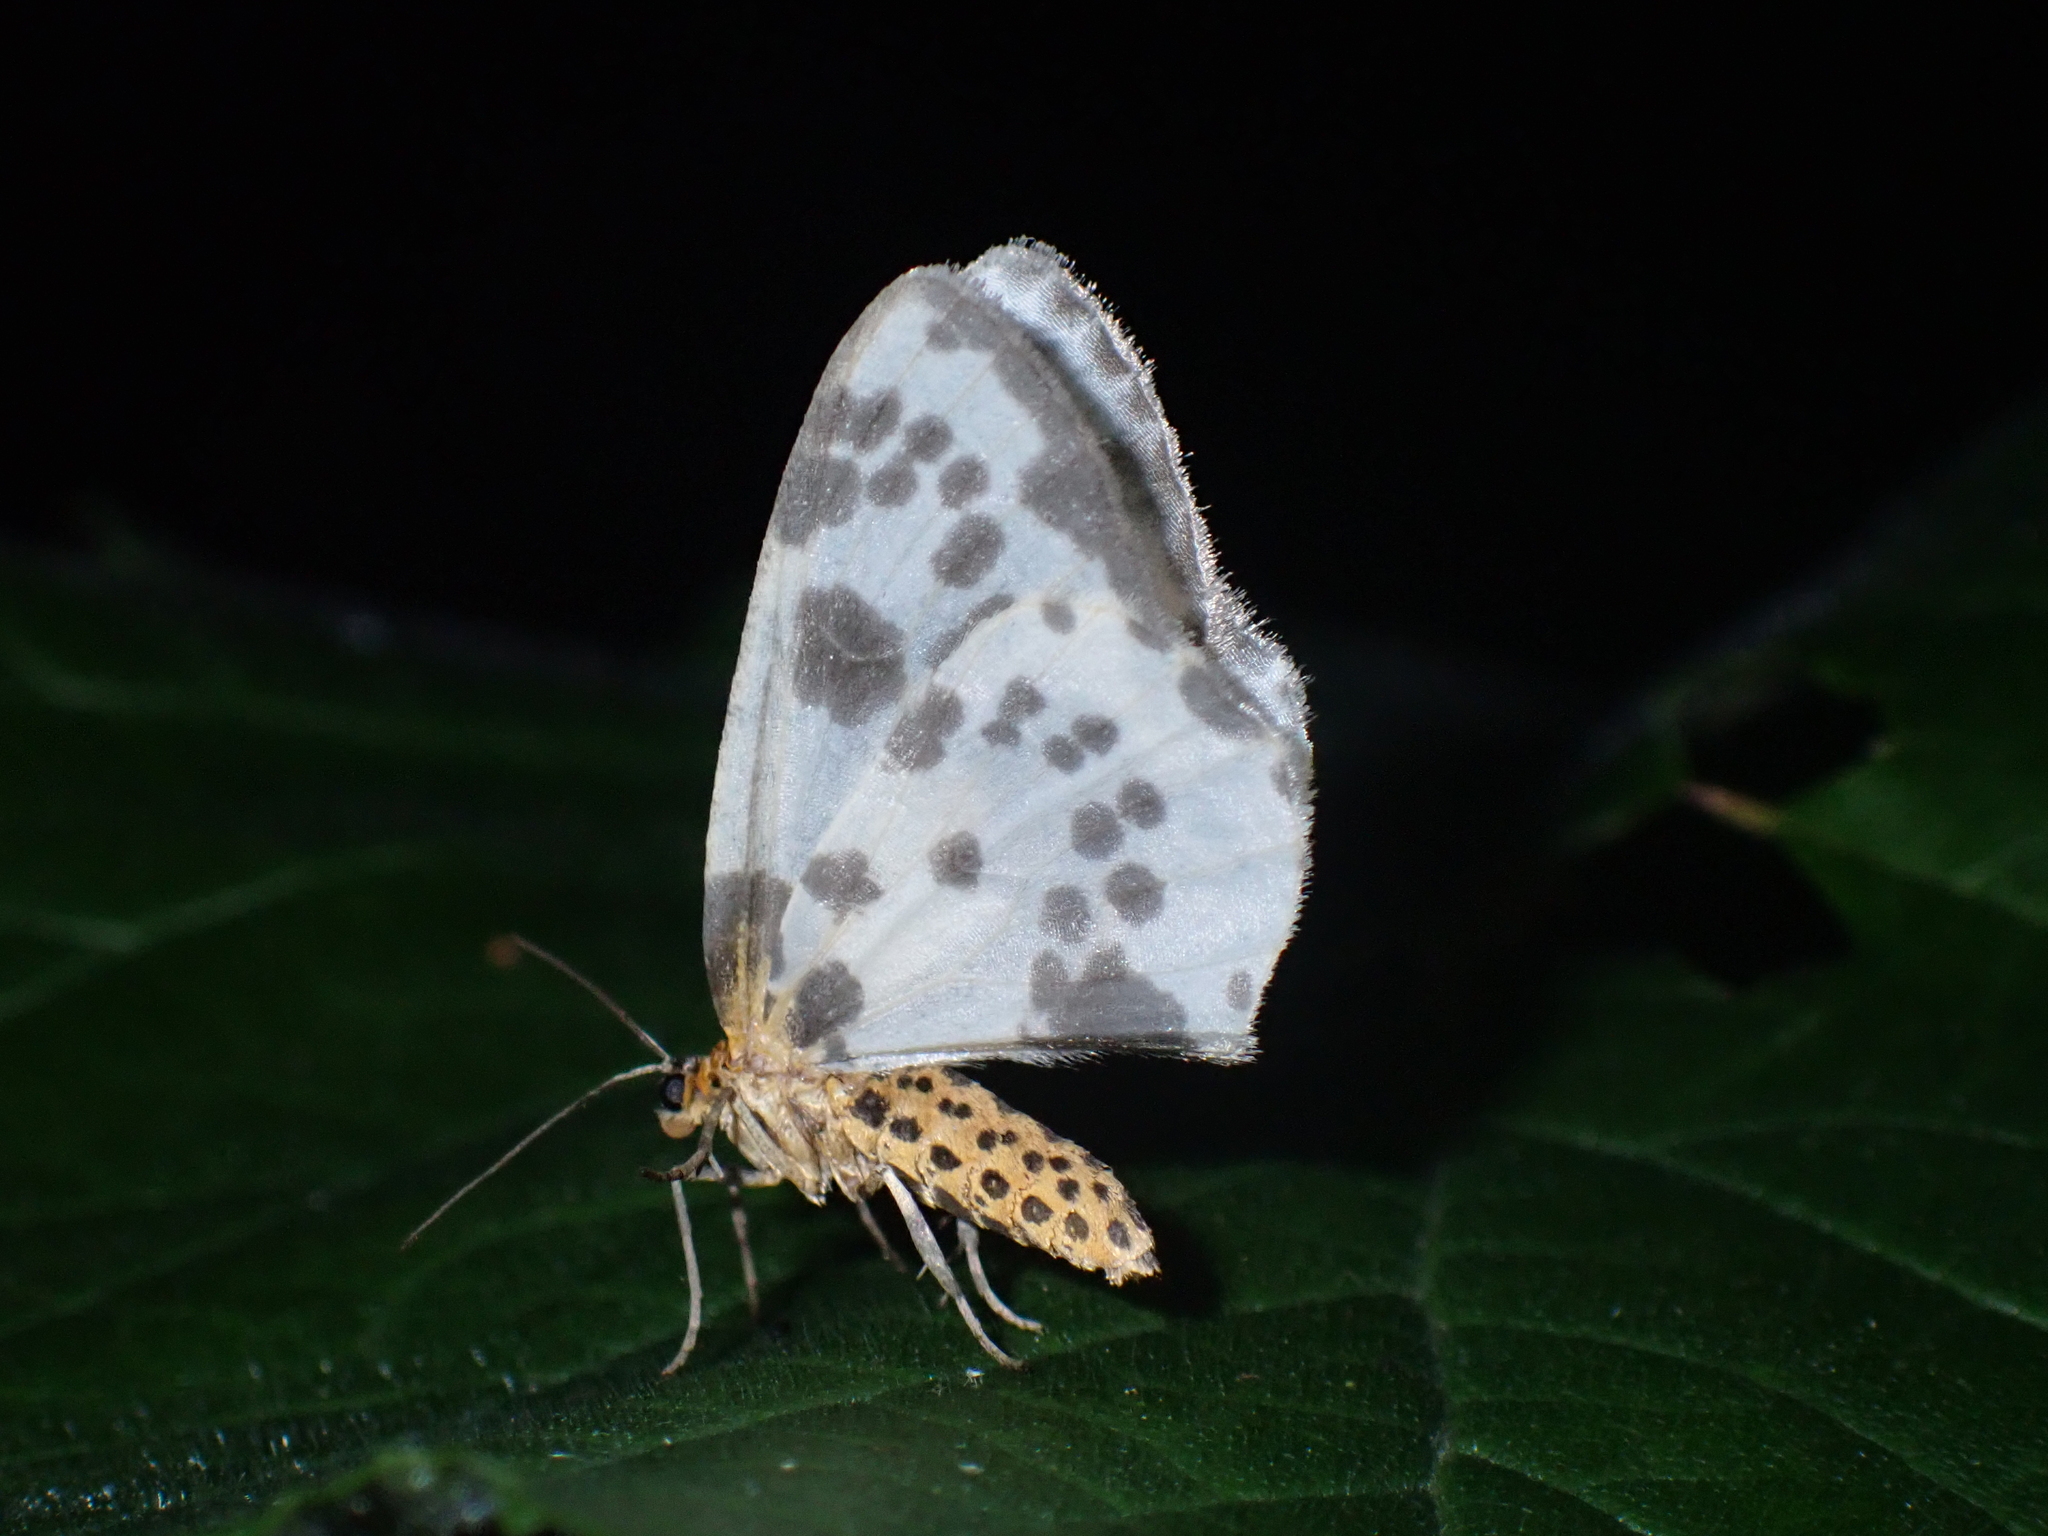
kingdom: Animalia
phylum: Arthropoda
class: Insecta
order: Lepidoptera
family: Geometridae
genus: Abraxas
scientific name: Abraxas sylvata
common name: Clouded magpie
